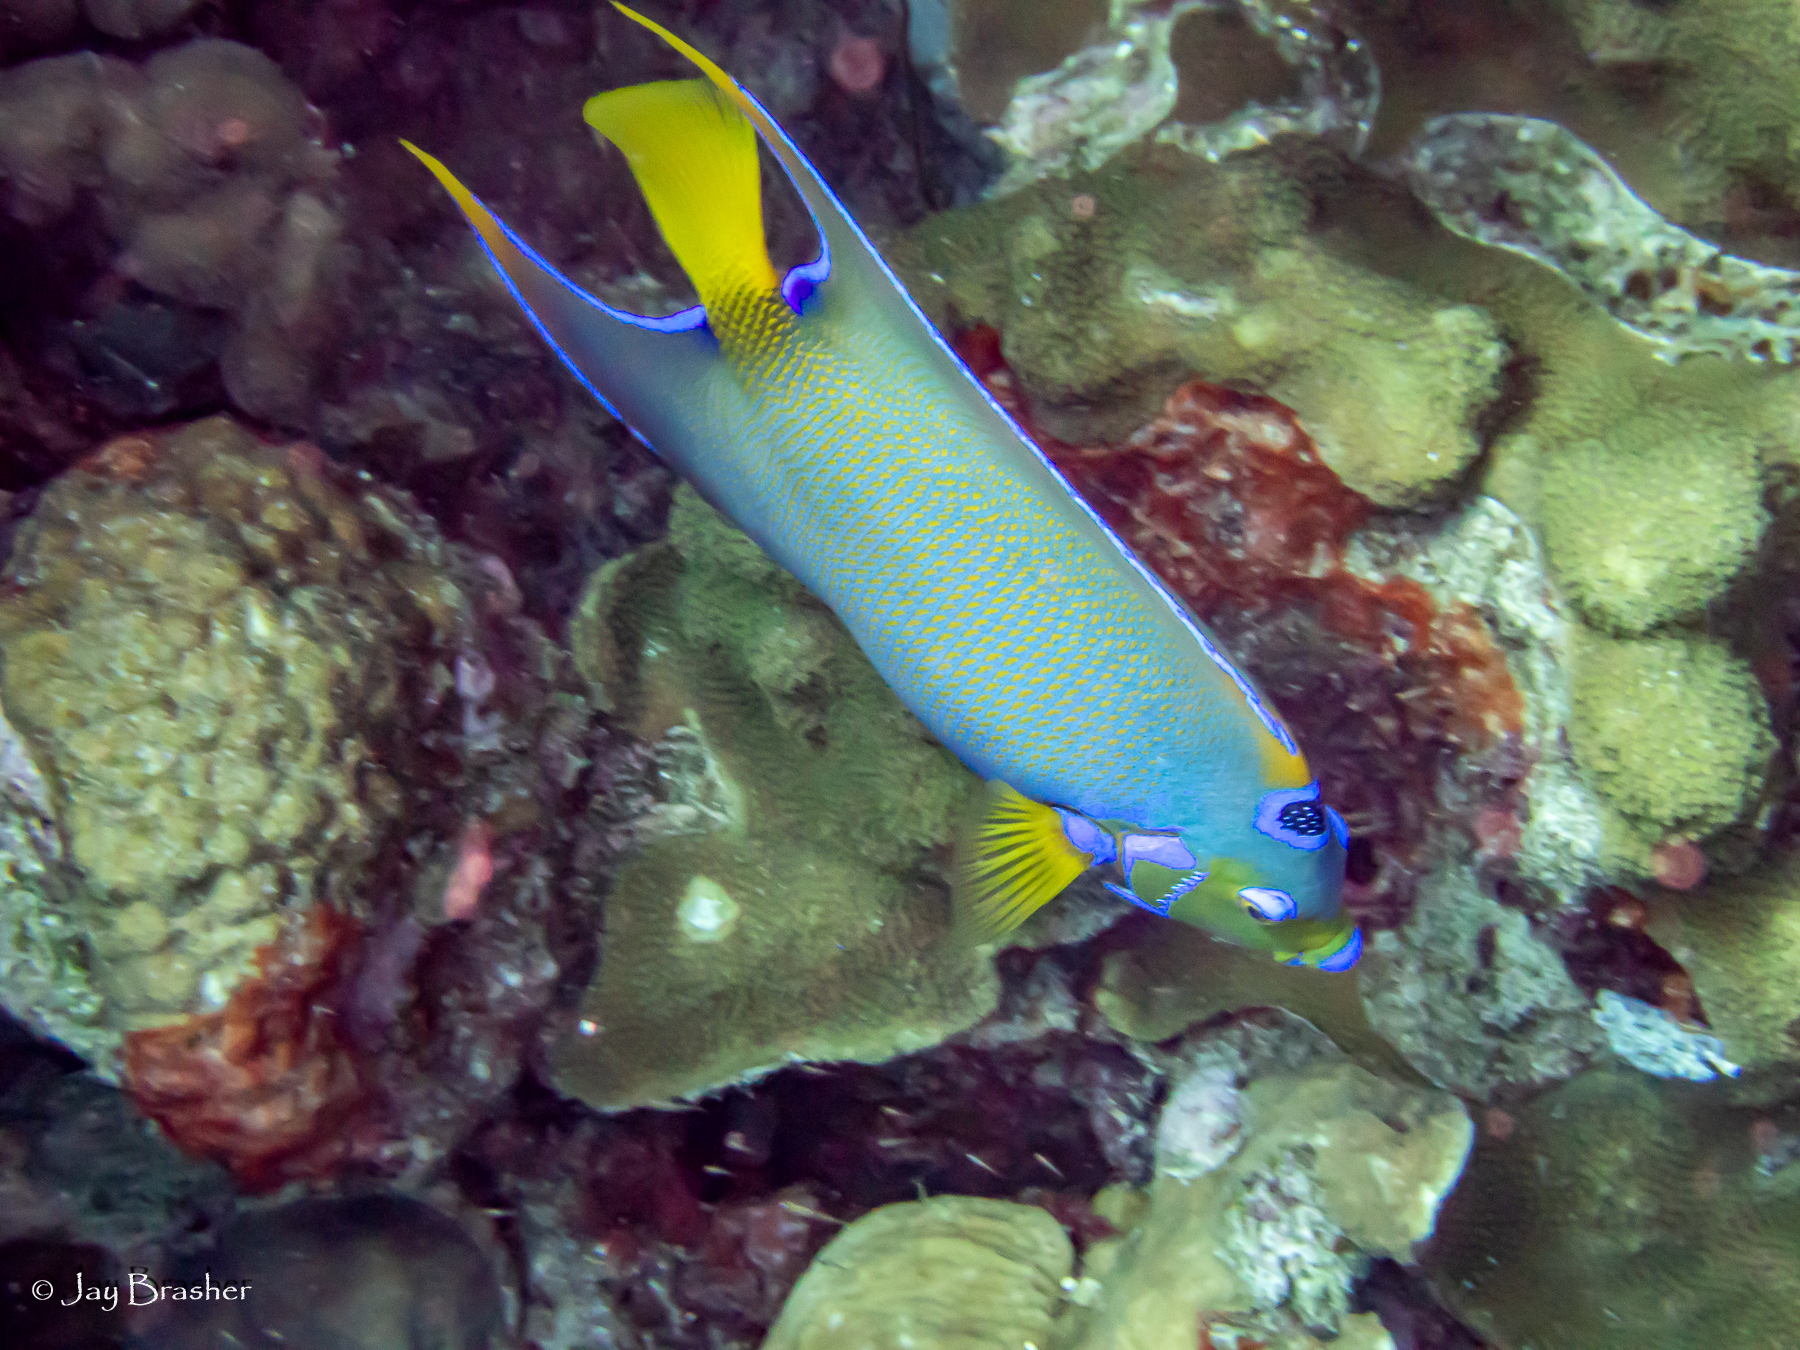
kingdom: Animalia
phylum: Chordata
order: Perciformes
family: Pomacanthidae
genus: Holacanthus
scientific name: Holacanthus ciliaris
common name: Queen angelfish
